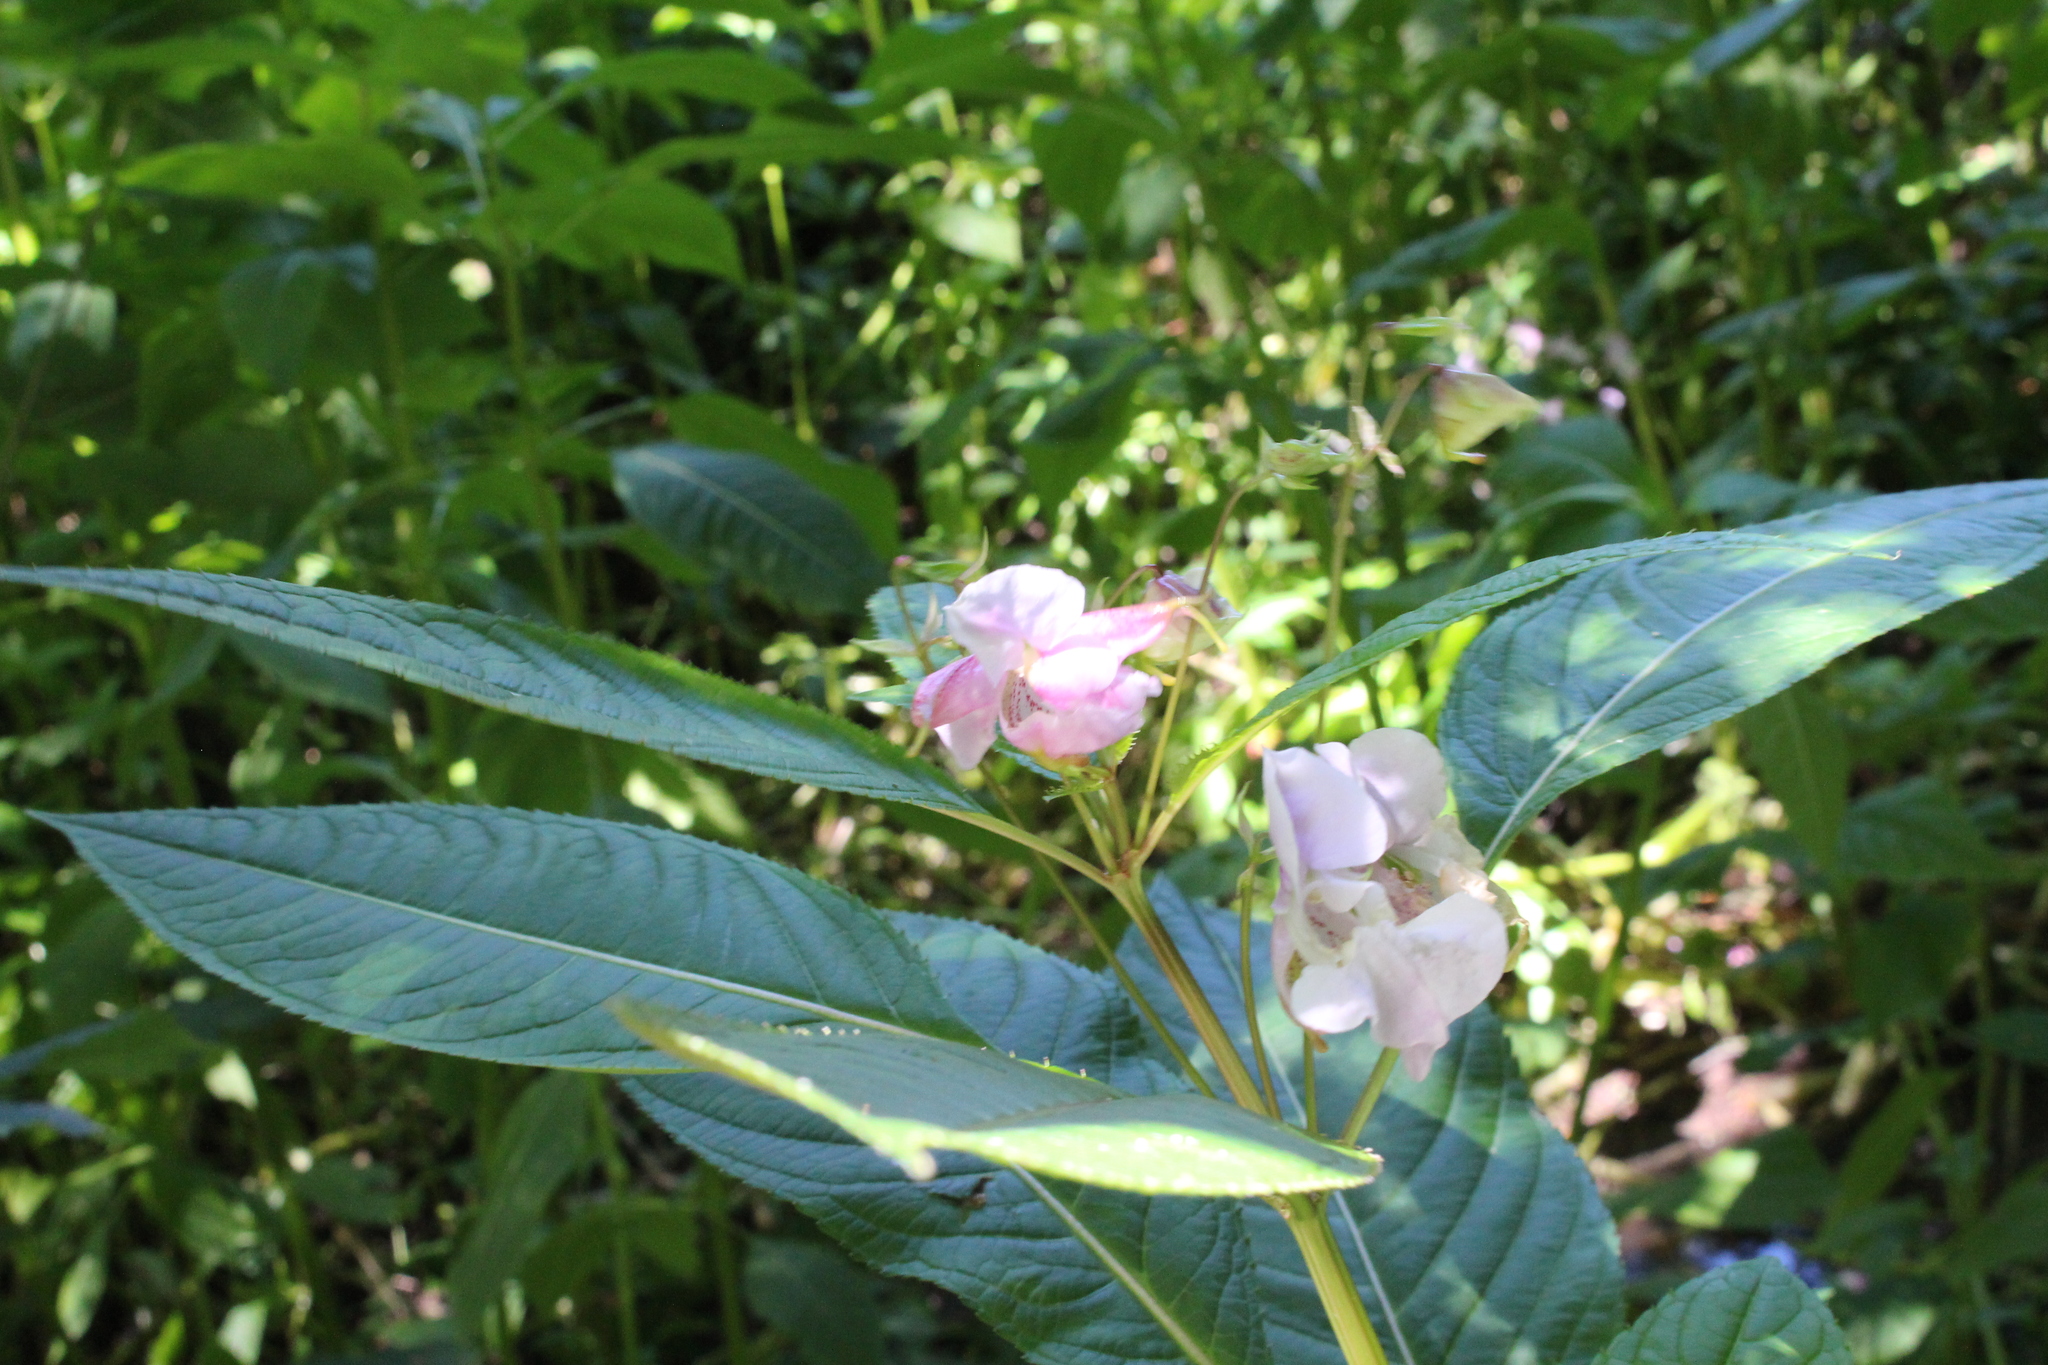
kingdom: Plantae
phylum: Tracheophyta
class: Magnoliopsida
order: Ericales
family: Balsaminaceae
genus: Impatiens
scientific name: Impatiens glandulifera
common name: Himalayan balsam
